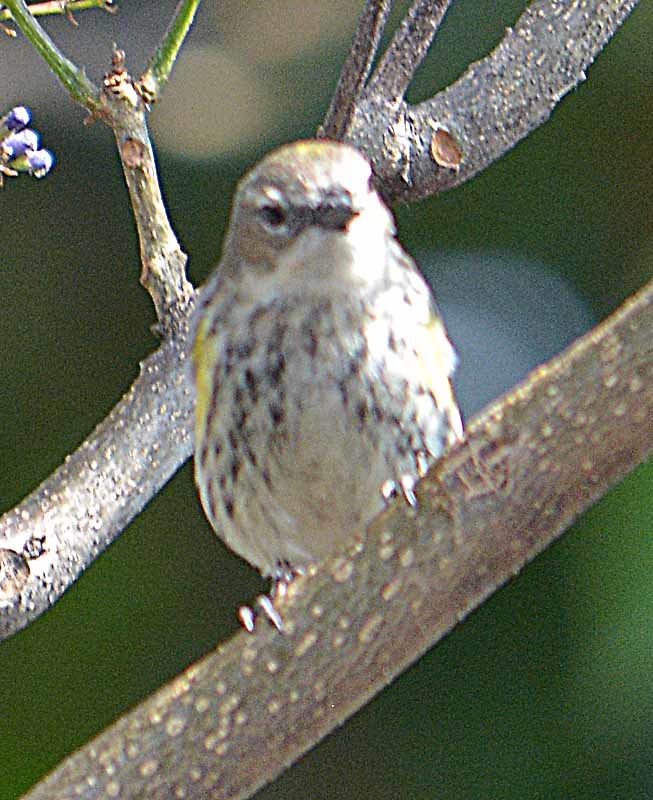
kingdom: Animalia
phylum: Chordata
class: Aves
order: Passeriformes
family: Parulidae
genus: Setophaga
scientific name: Setophaga coronata
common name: Myrtle warbler
